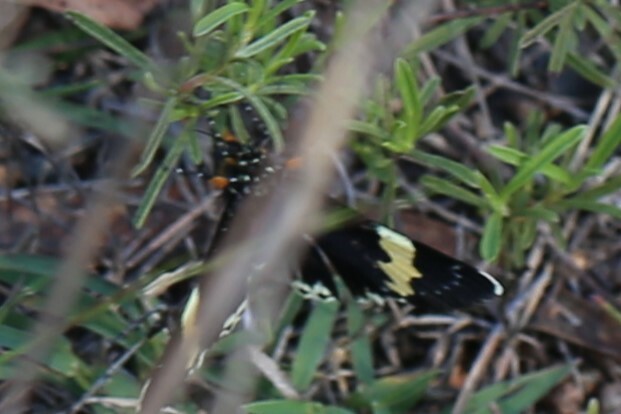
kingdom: Animalia
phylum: Arthropoda
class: Insecta
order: Lepidoptera
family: Noctuidae
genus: Eutrichopidia
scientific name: Eutrichopidia latinus
